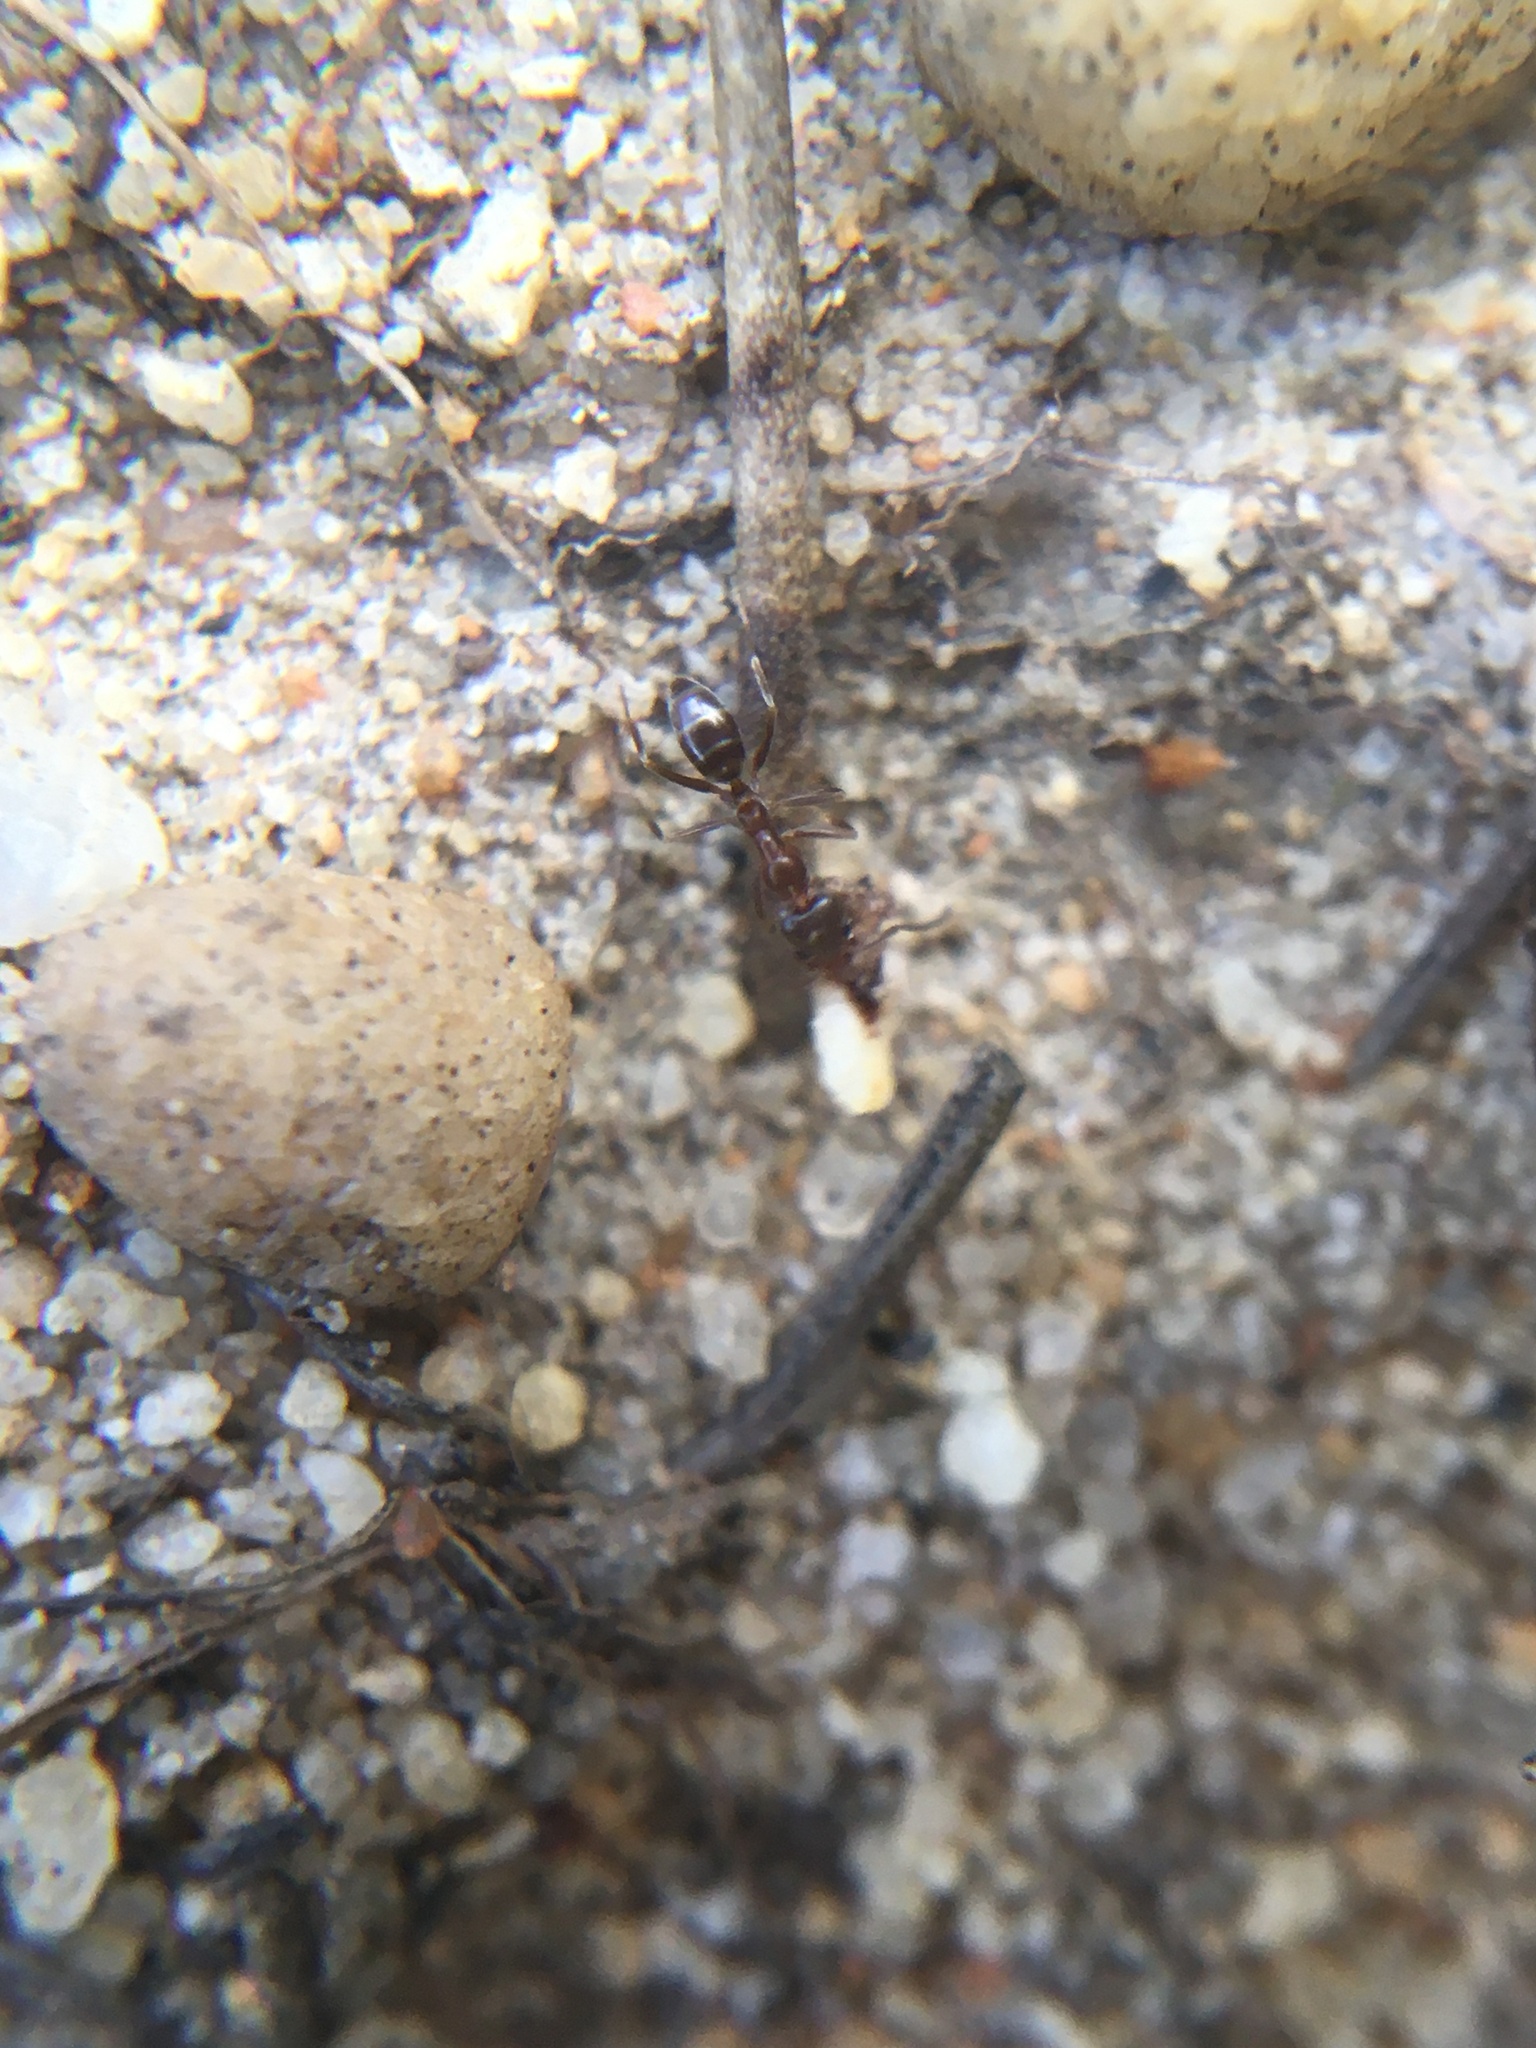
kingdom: Animalia
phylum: Arthropoda
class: Insecta
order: Hymenoptera
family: Formicidae
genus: Linepithema
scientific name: Linepithema humile
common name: Argentine ant
